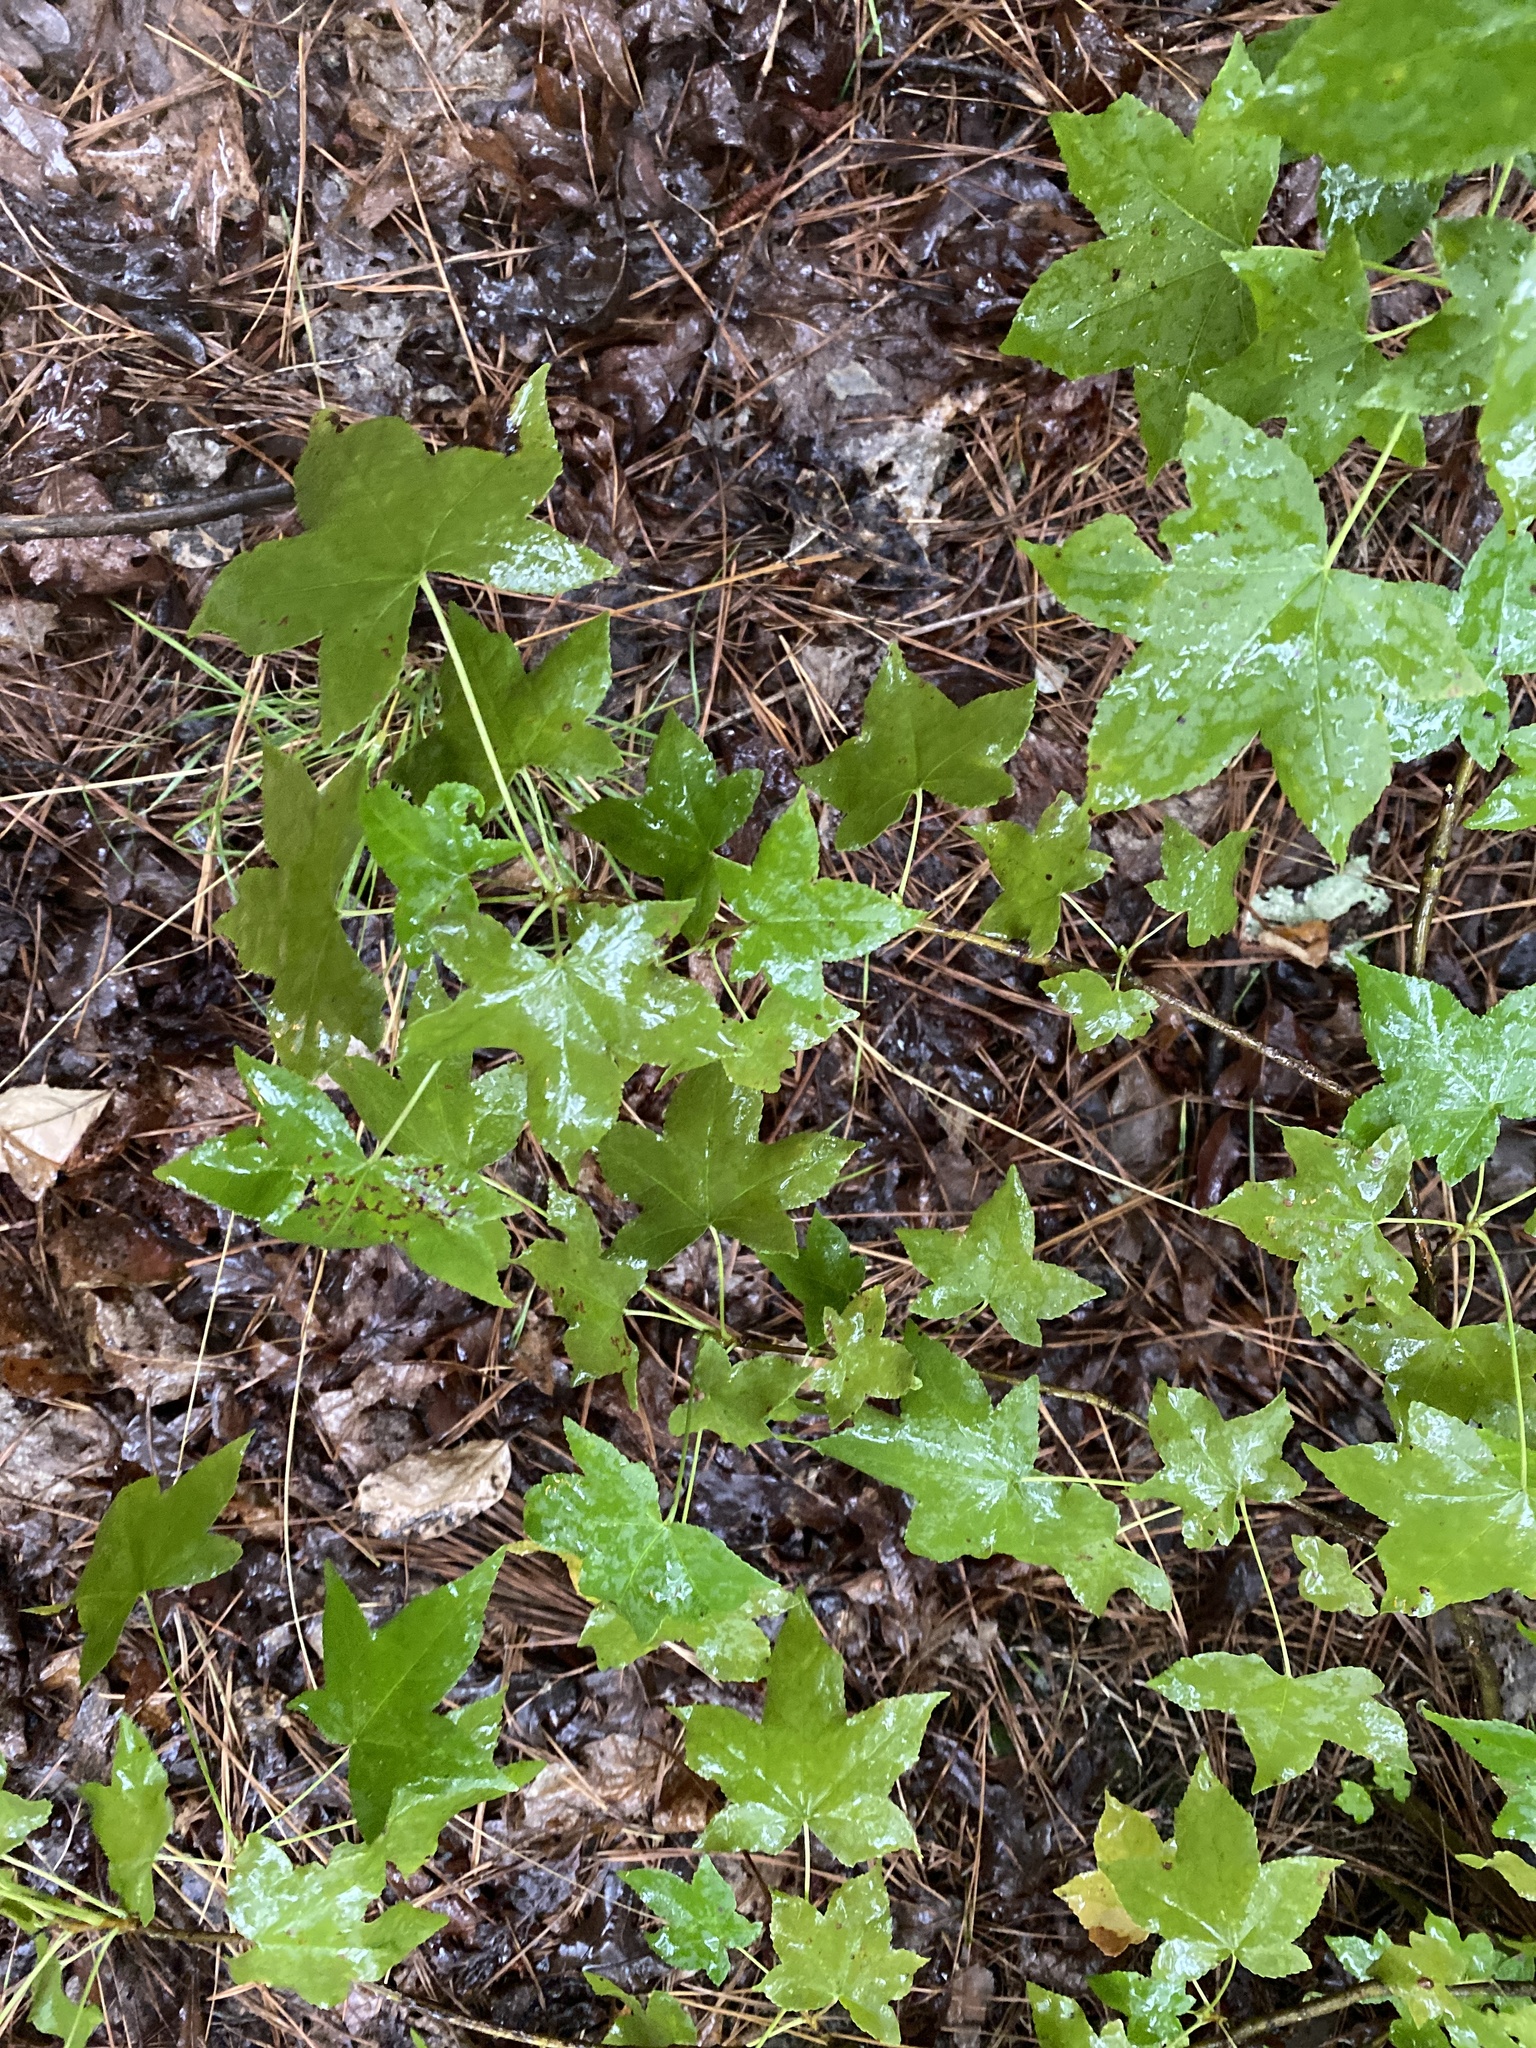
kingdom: Plantae
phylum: Tracheophyta
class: Magnoliopsida
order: Saxifragales
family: Altingiaceae
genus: Liquidambar
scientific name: Liquidambar styraciflua
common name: Sweet gum
